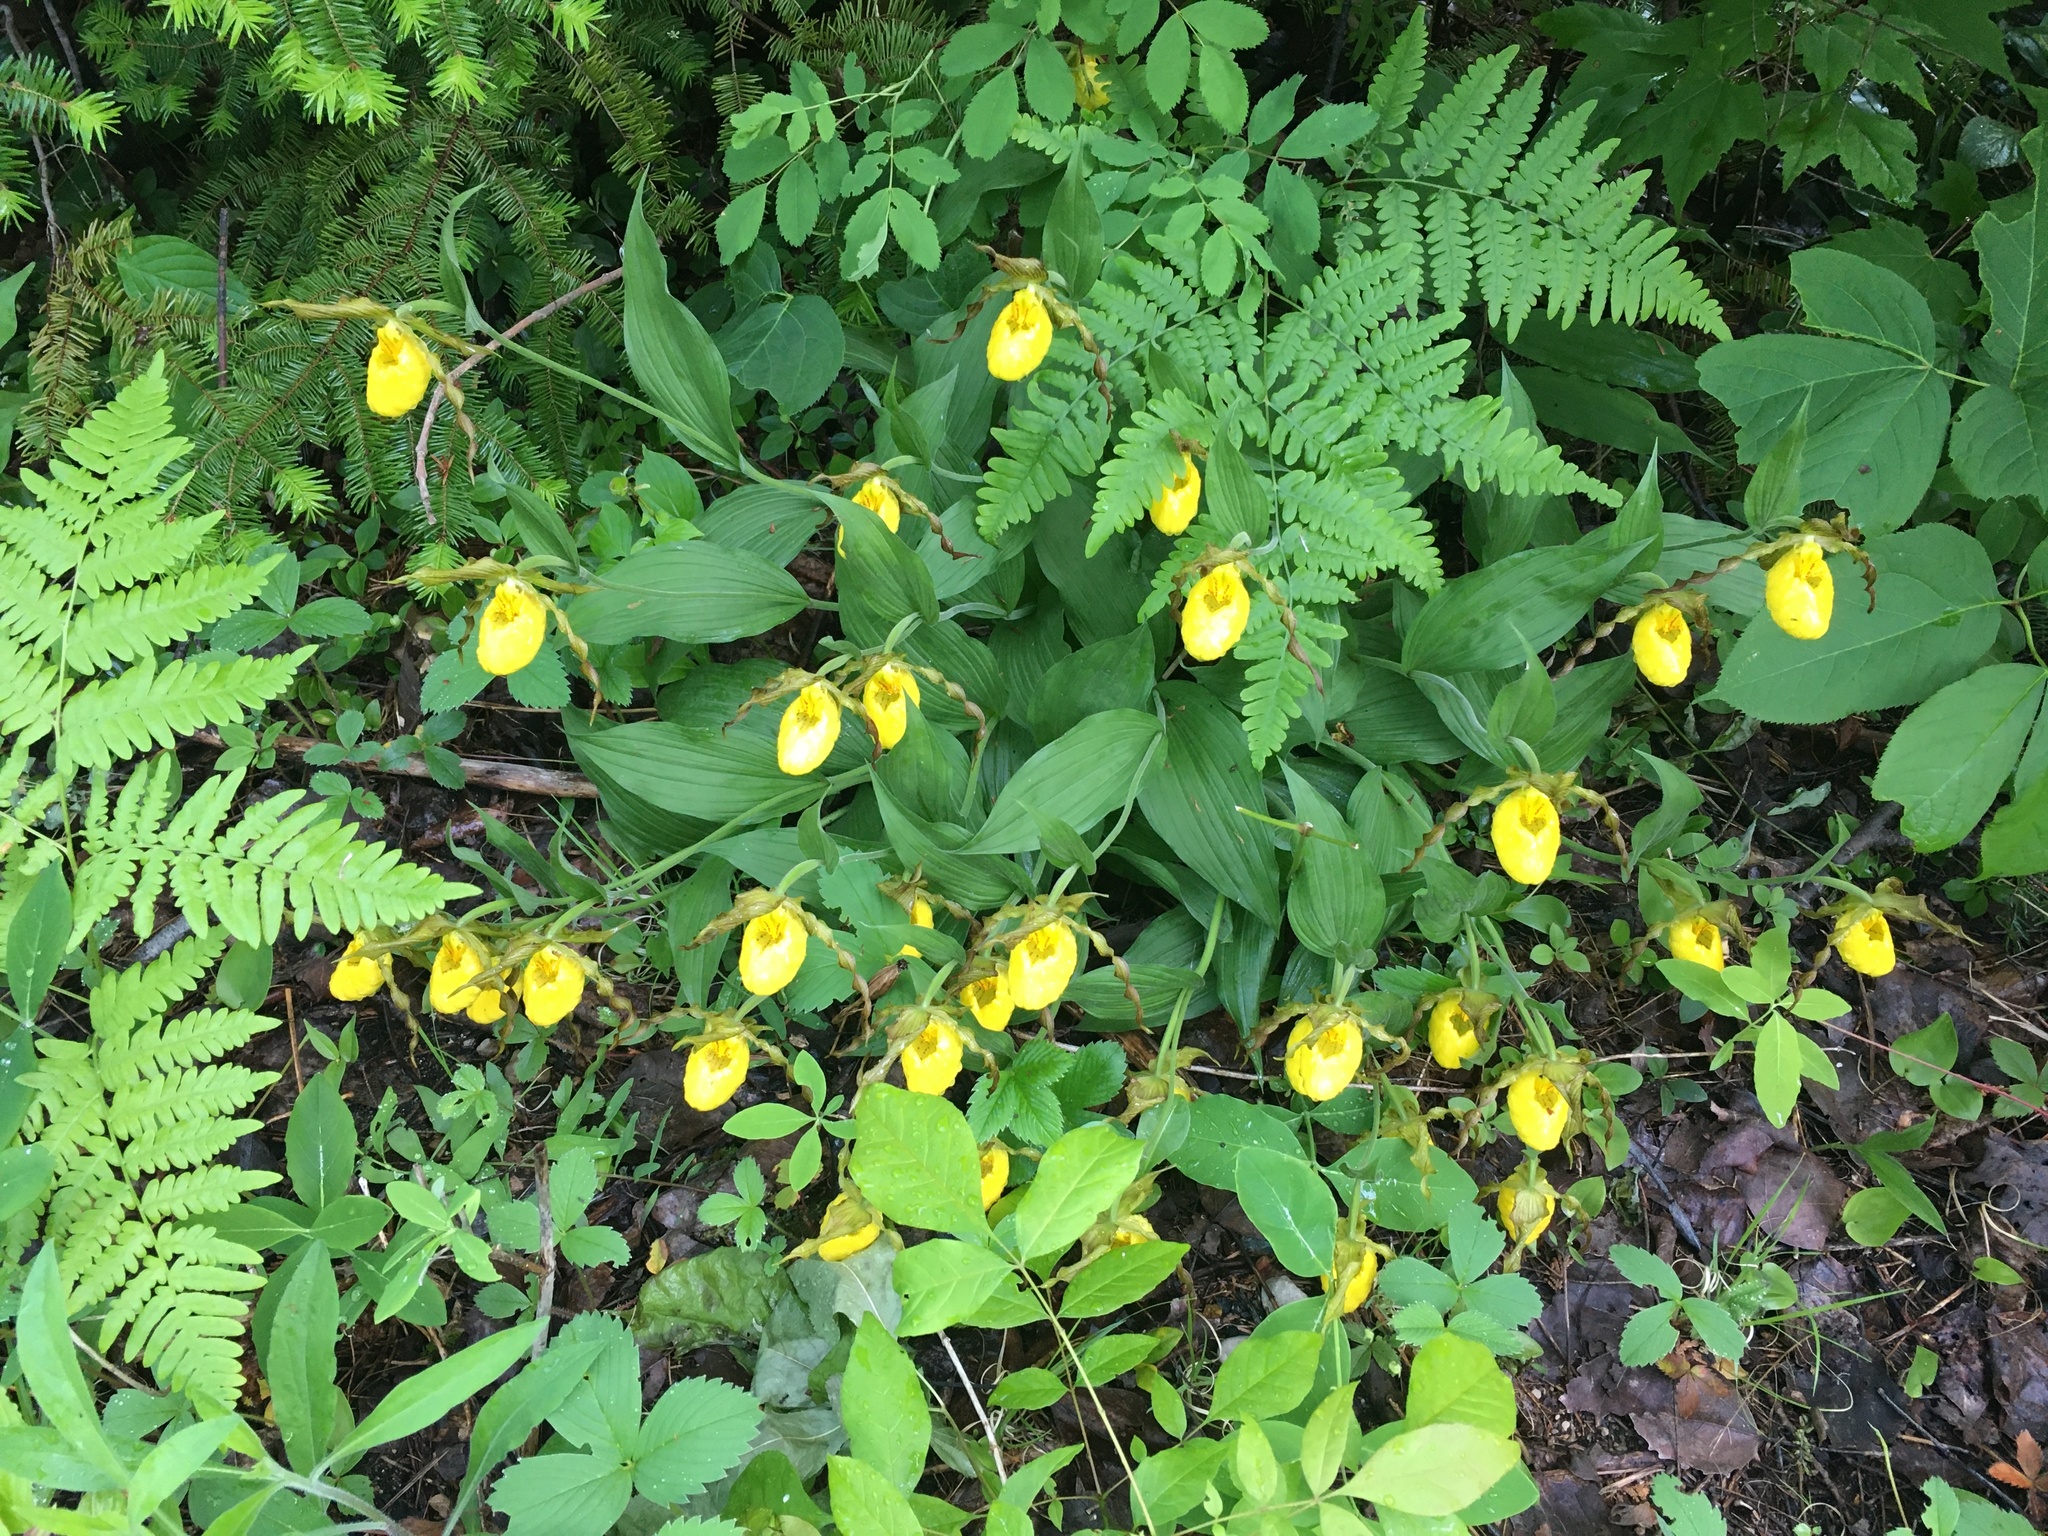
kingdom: Plantae
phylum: Tracheophyta
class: Liliopsida
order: Asparagales
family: Orchidaceae
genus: Cypripedium
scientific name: Cypripedium parviflorum
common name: American yellow lady's-slipper
